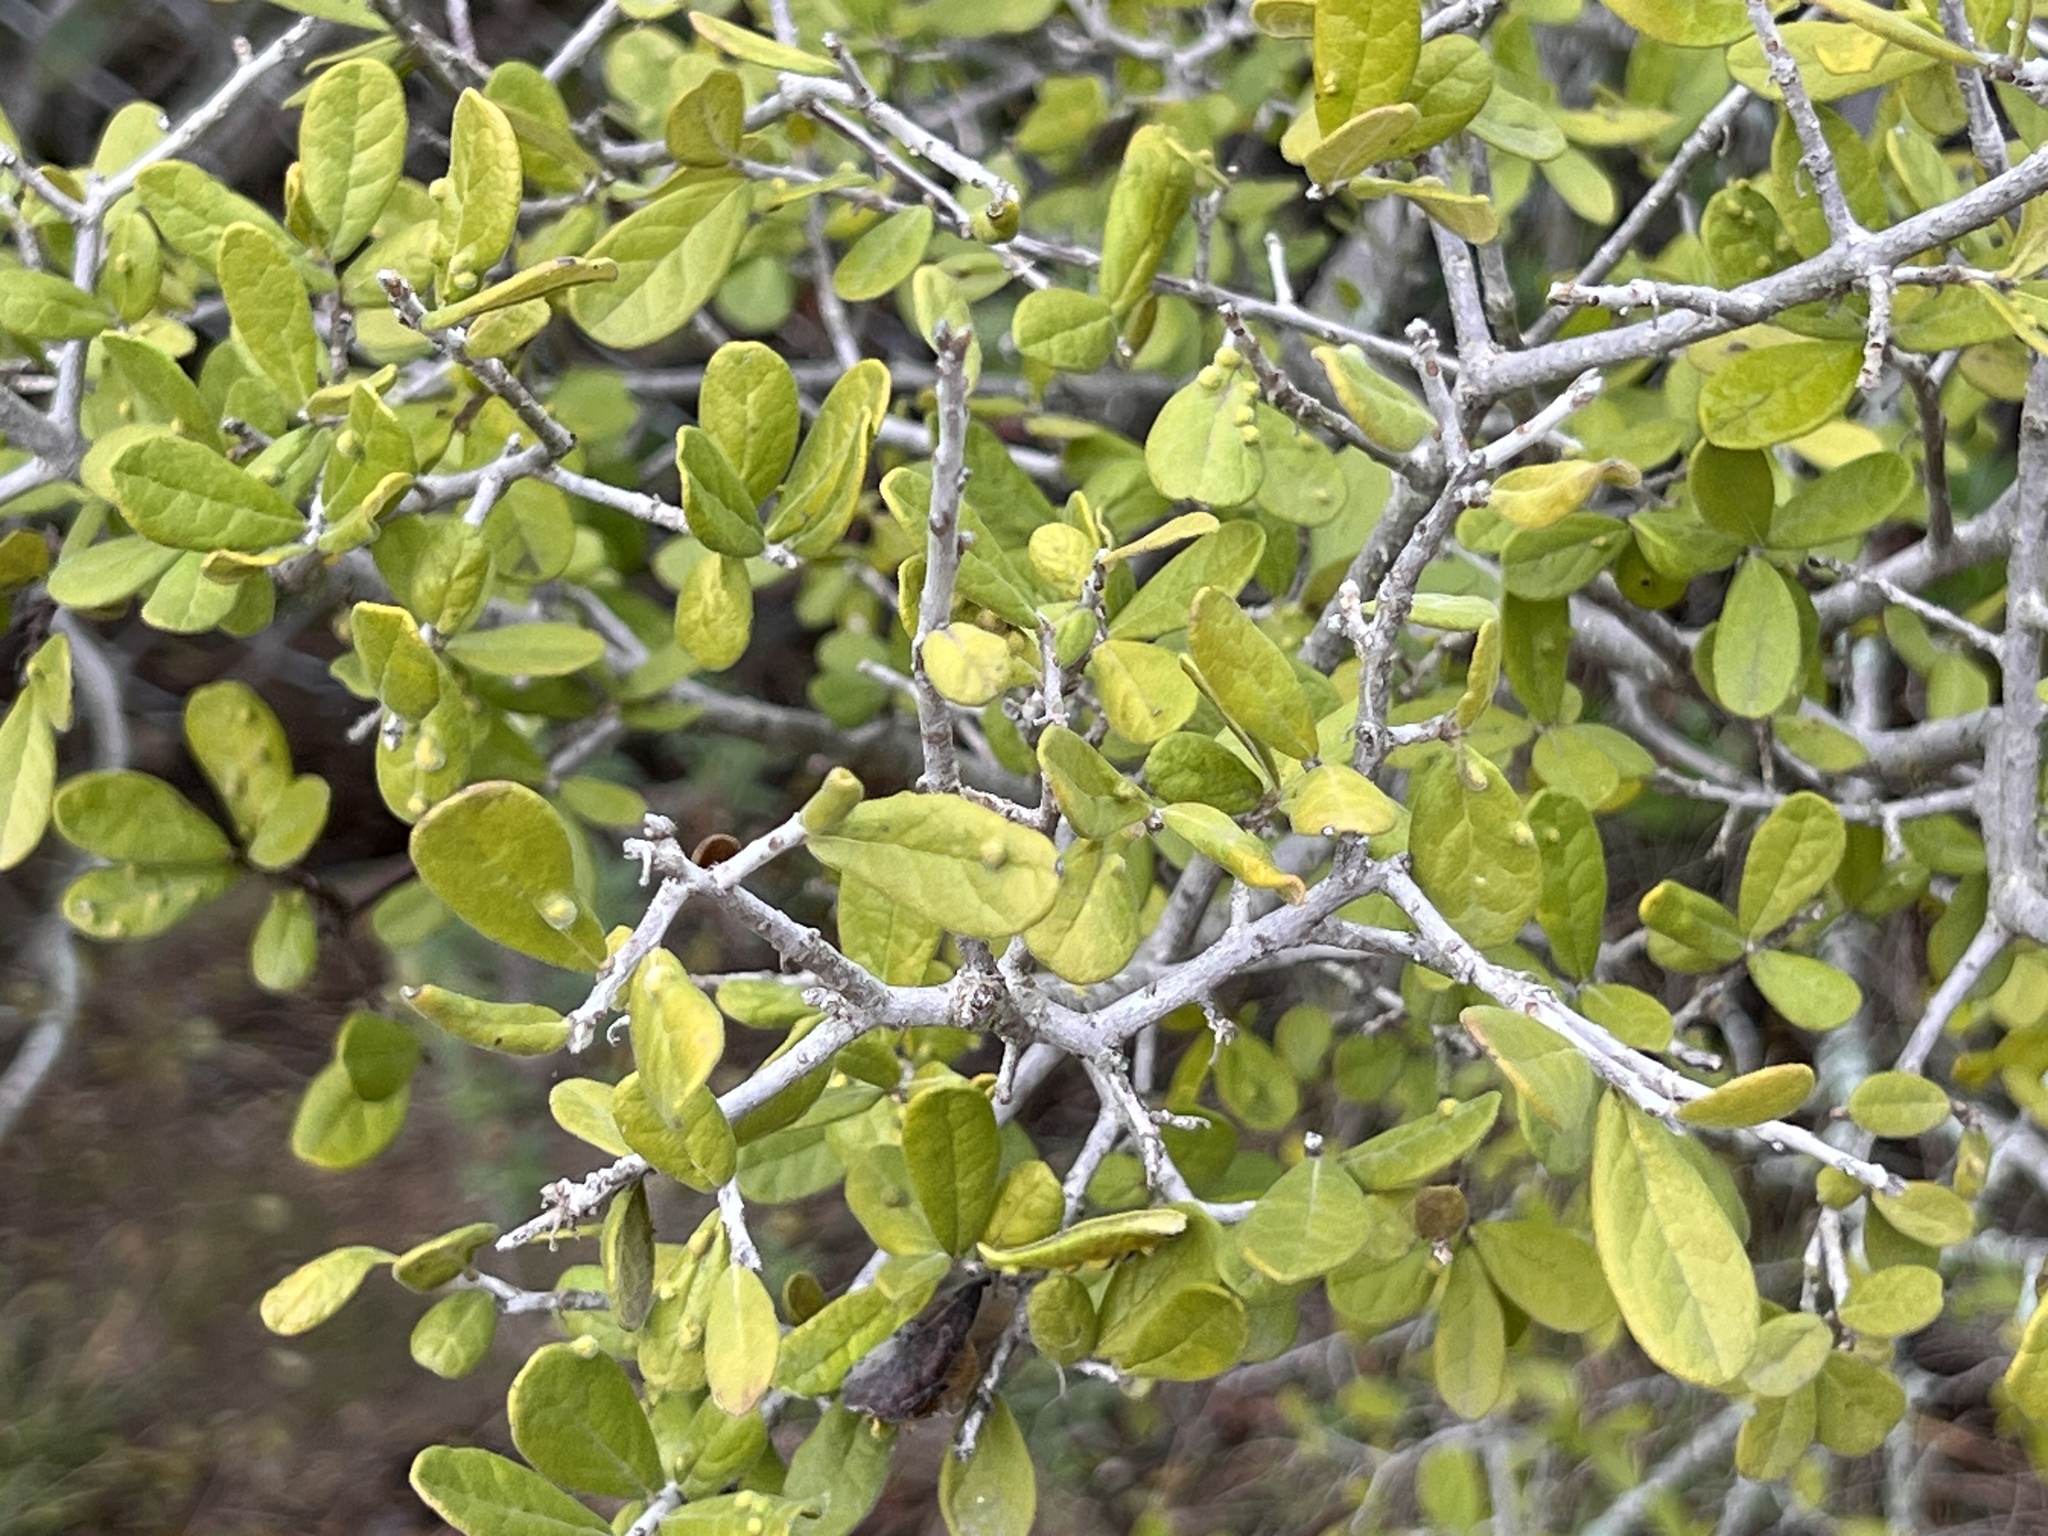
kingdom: Plantae
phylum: Tracheophyta
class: Magnoliopsida
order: Ericales
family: Ebenaceae
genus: Diospyros
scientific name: Diospyros texana
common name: Texas persimmon
